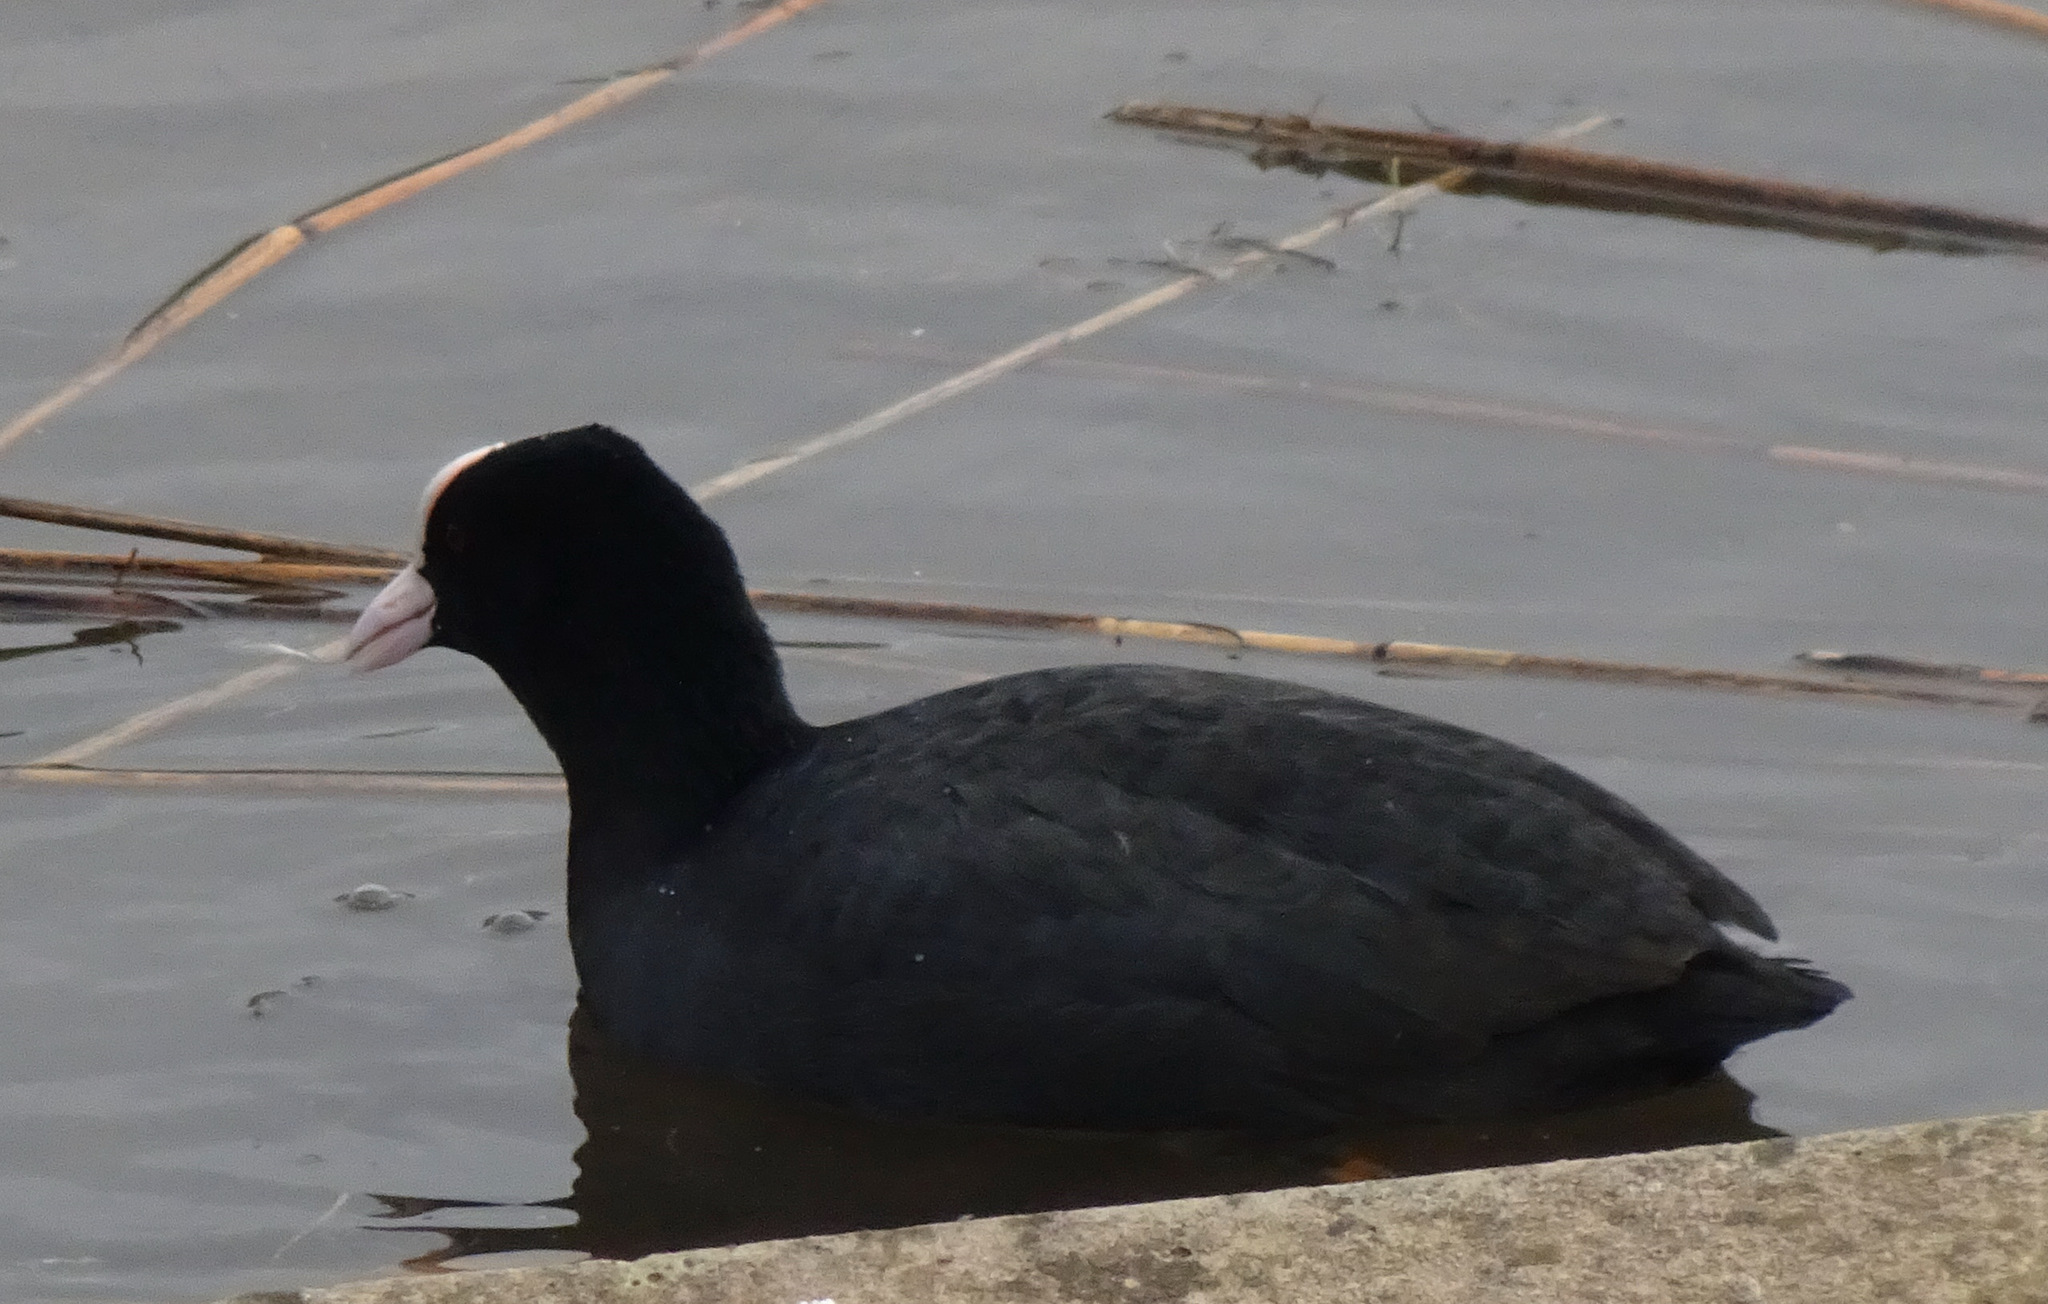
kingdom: Animalia
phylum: Chordata
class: Aves
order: Gruiformes
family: Rallidae
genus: Fulica
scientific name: Fulica atra
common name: Eurasian coot
